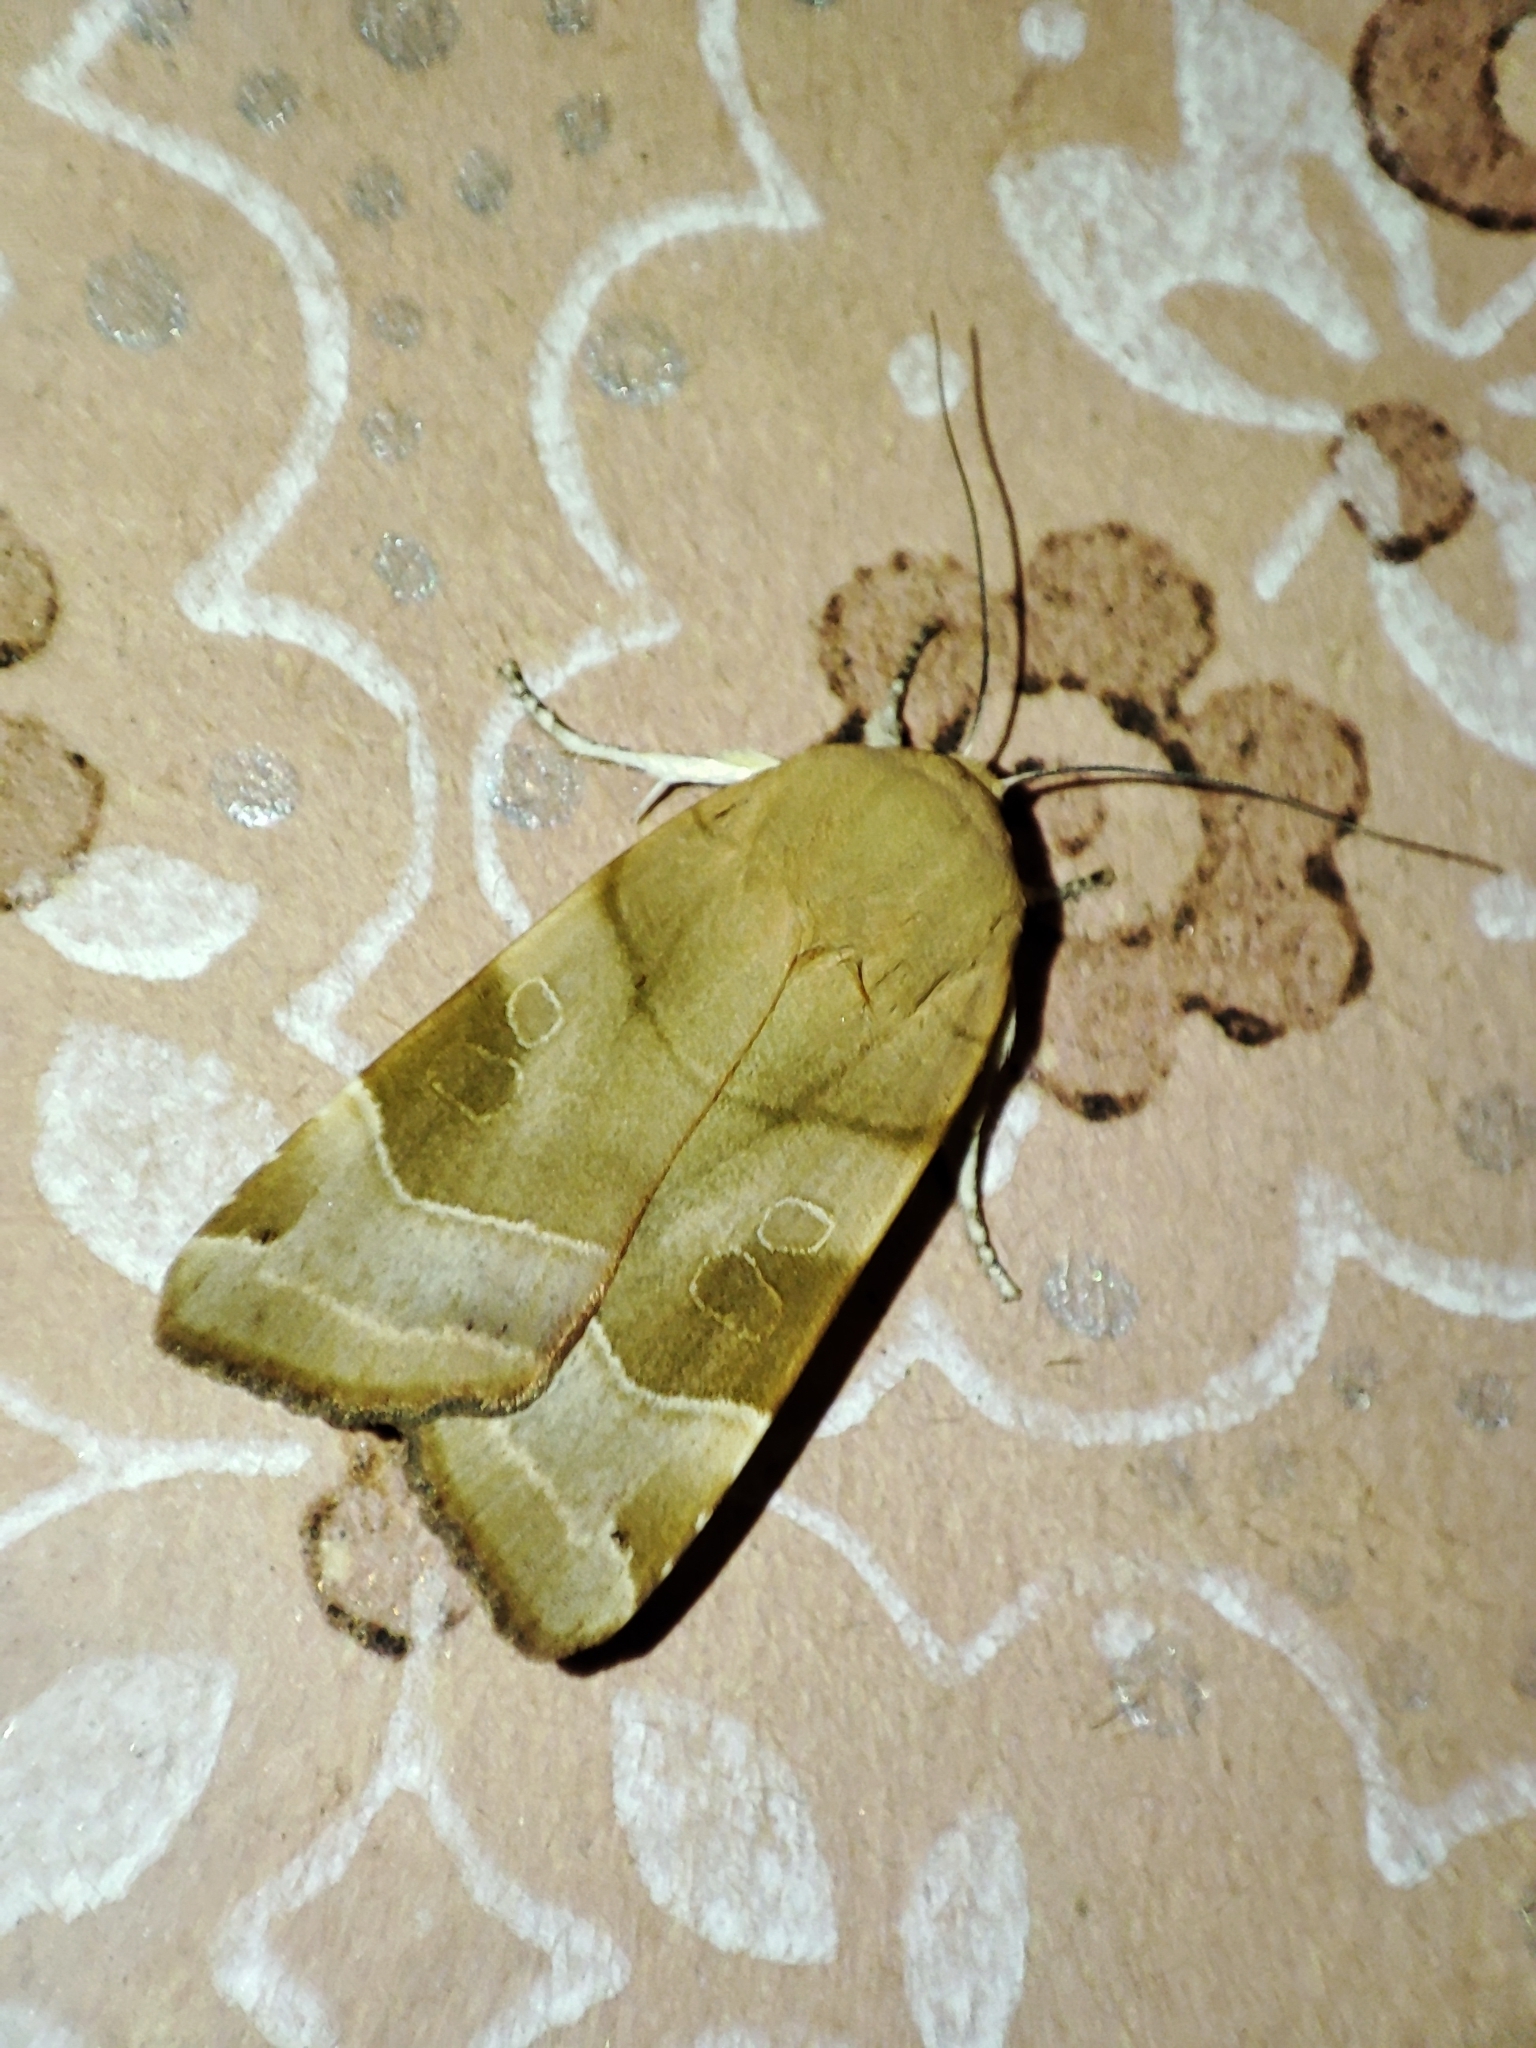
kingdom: Animalia
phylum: Arthropoda
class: Insecta
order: Lepidoptera
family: Noctuidae
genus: Noctua
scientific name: Noctua fimbriata
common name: Broad-bordered yellow underwing
